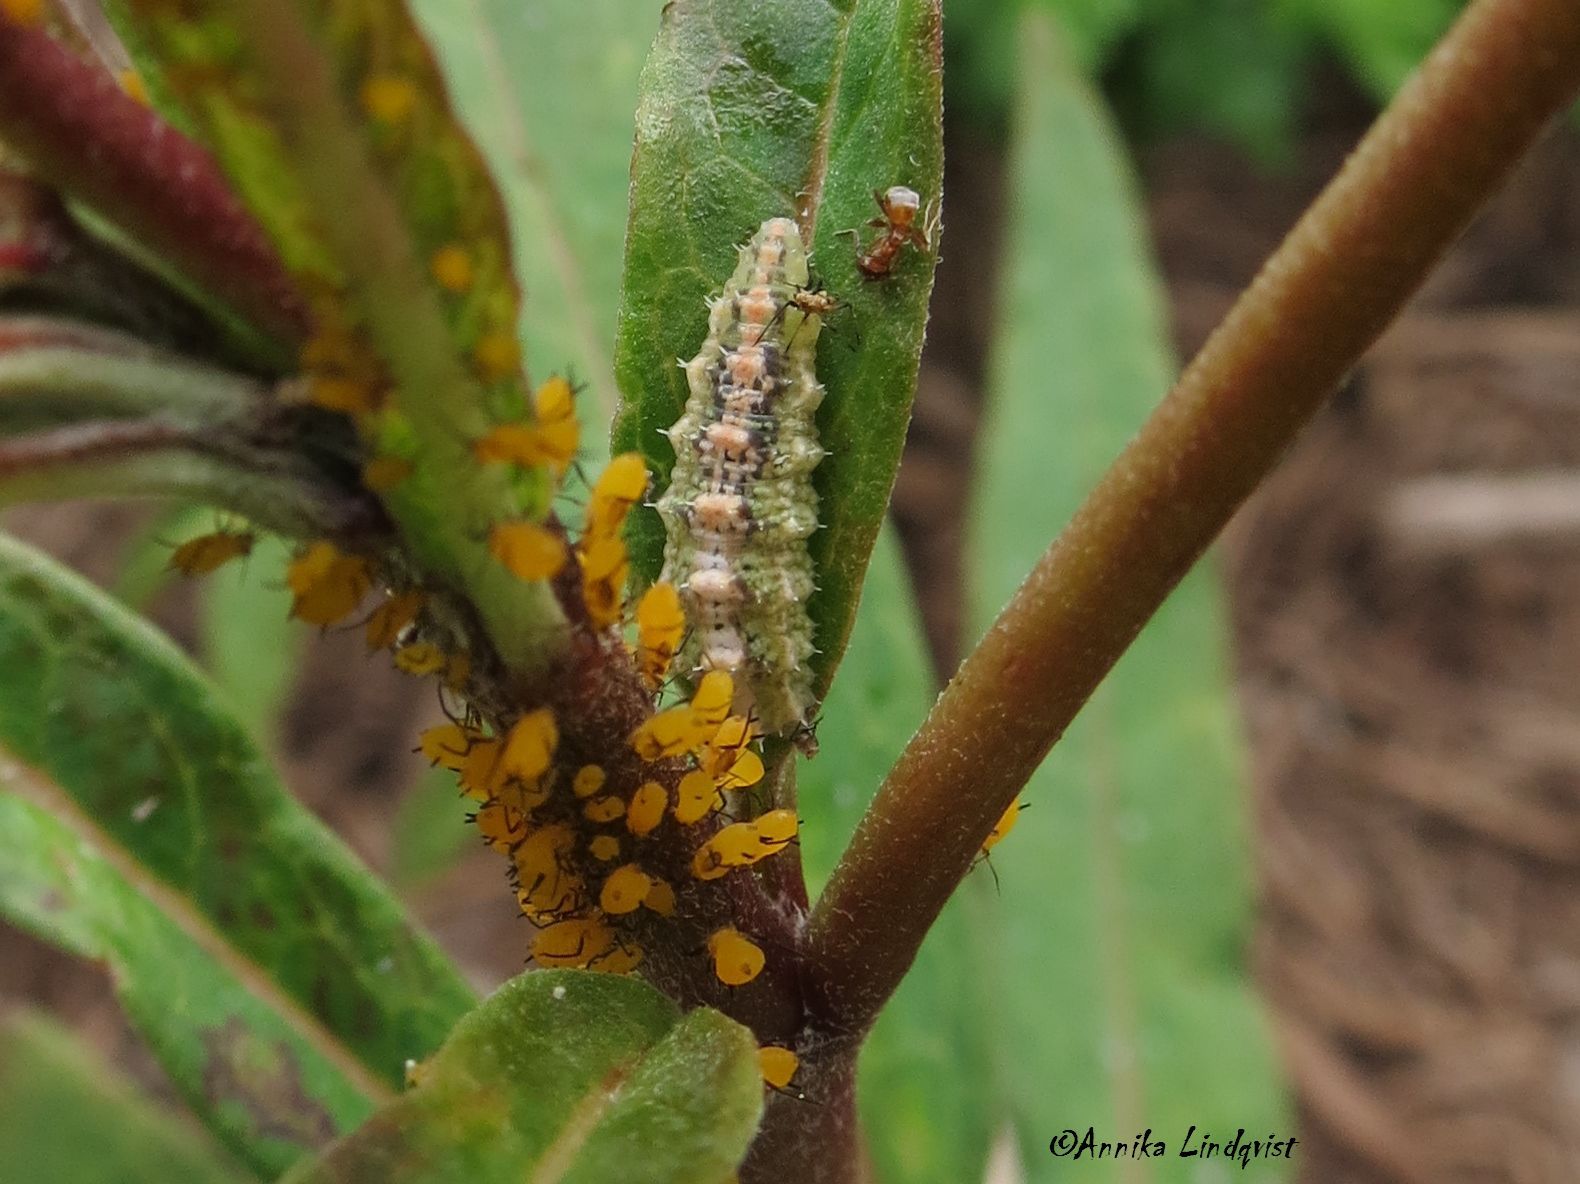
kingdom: Animalia
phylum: Arthropoda
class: Insecta
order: Diptera
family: Syrphidae
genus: Dioprosopa
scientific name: Dioprosopa clavatus
